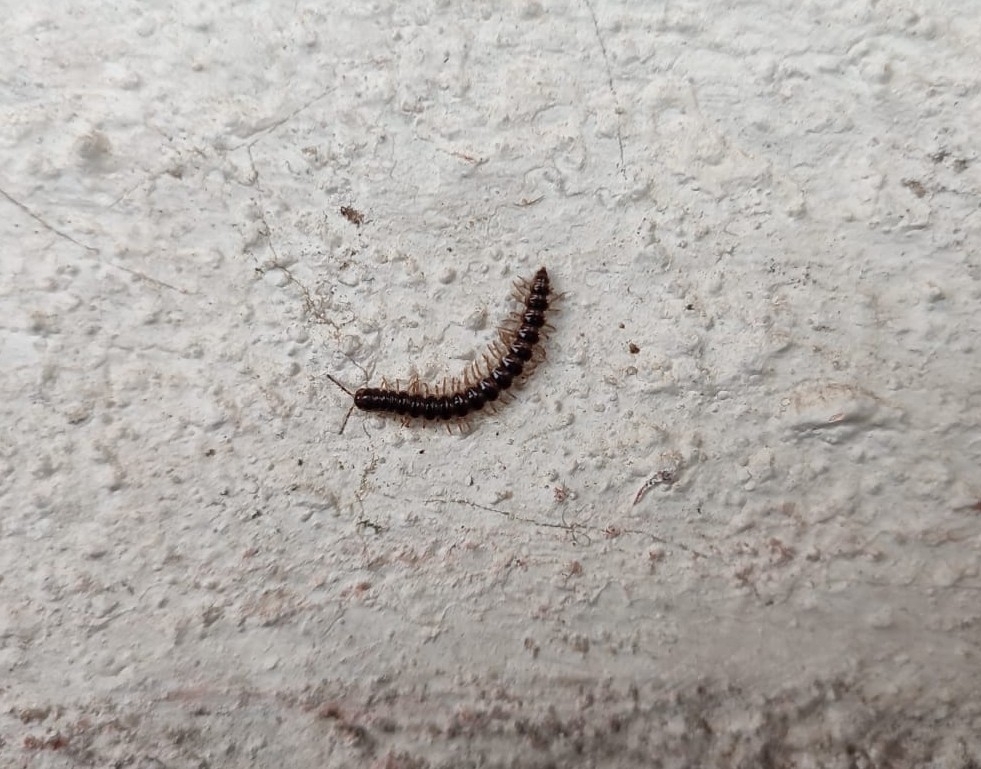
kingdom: Animalia
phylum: Arthropoda
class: Diplopoda
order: Polydesmida
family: Paradoxosomatidae
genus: Oxidus
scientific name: Oxidus gracilis
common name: Greenhouse millipede
